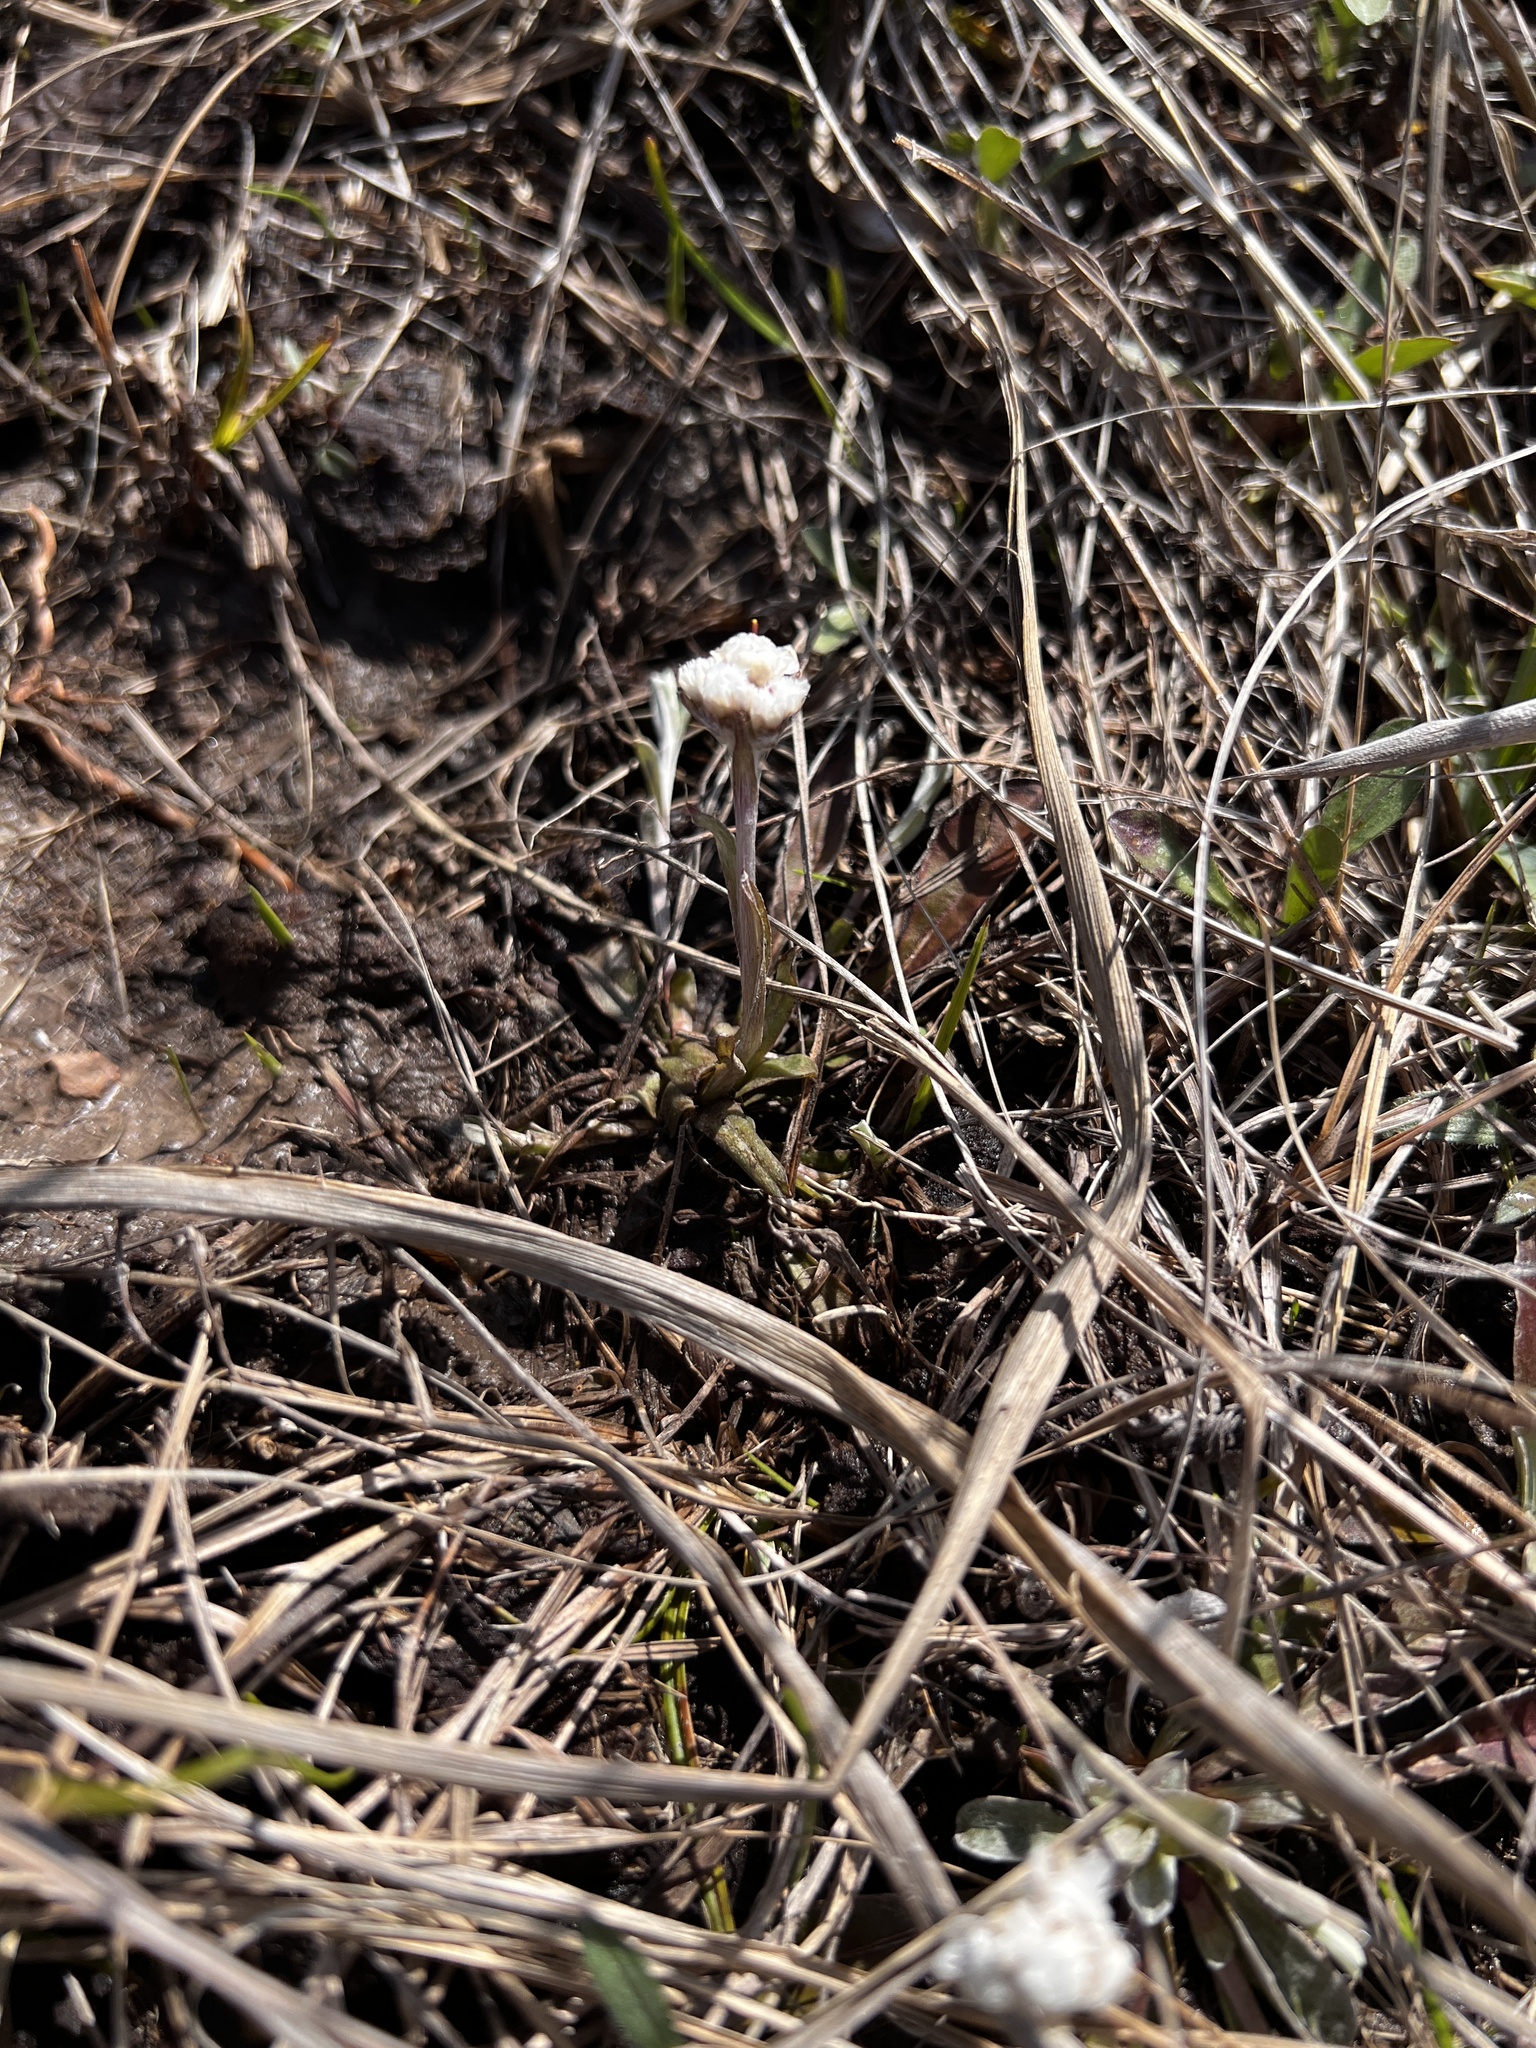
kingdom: Plantae
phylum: Tracheophyta
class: Magnoliopsida
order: Asterales
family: Asteraceae
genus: Antennaria
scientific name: Antennaria neglecta
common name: Field pussytoes
